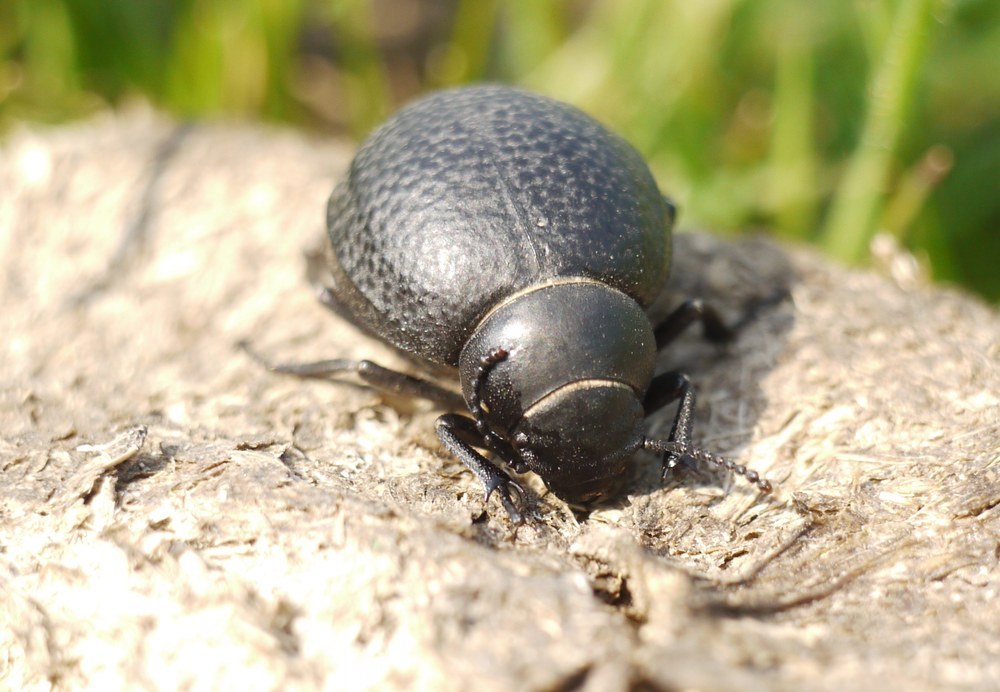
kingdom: Animalia
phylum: Arthropoda
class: Insecta
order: Coleoptera
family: Tenebrionidae
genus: Pimelia
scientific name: Pimelia subglobosa
